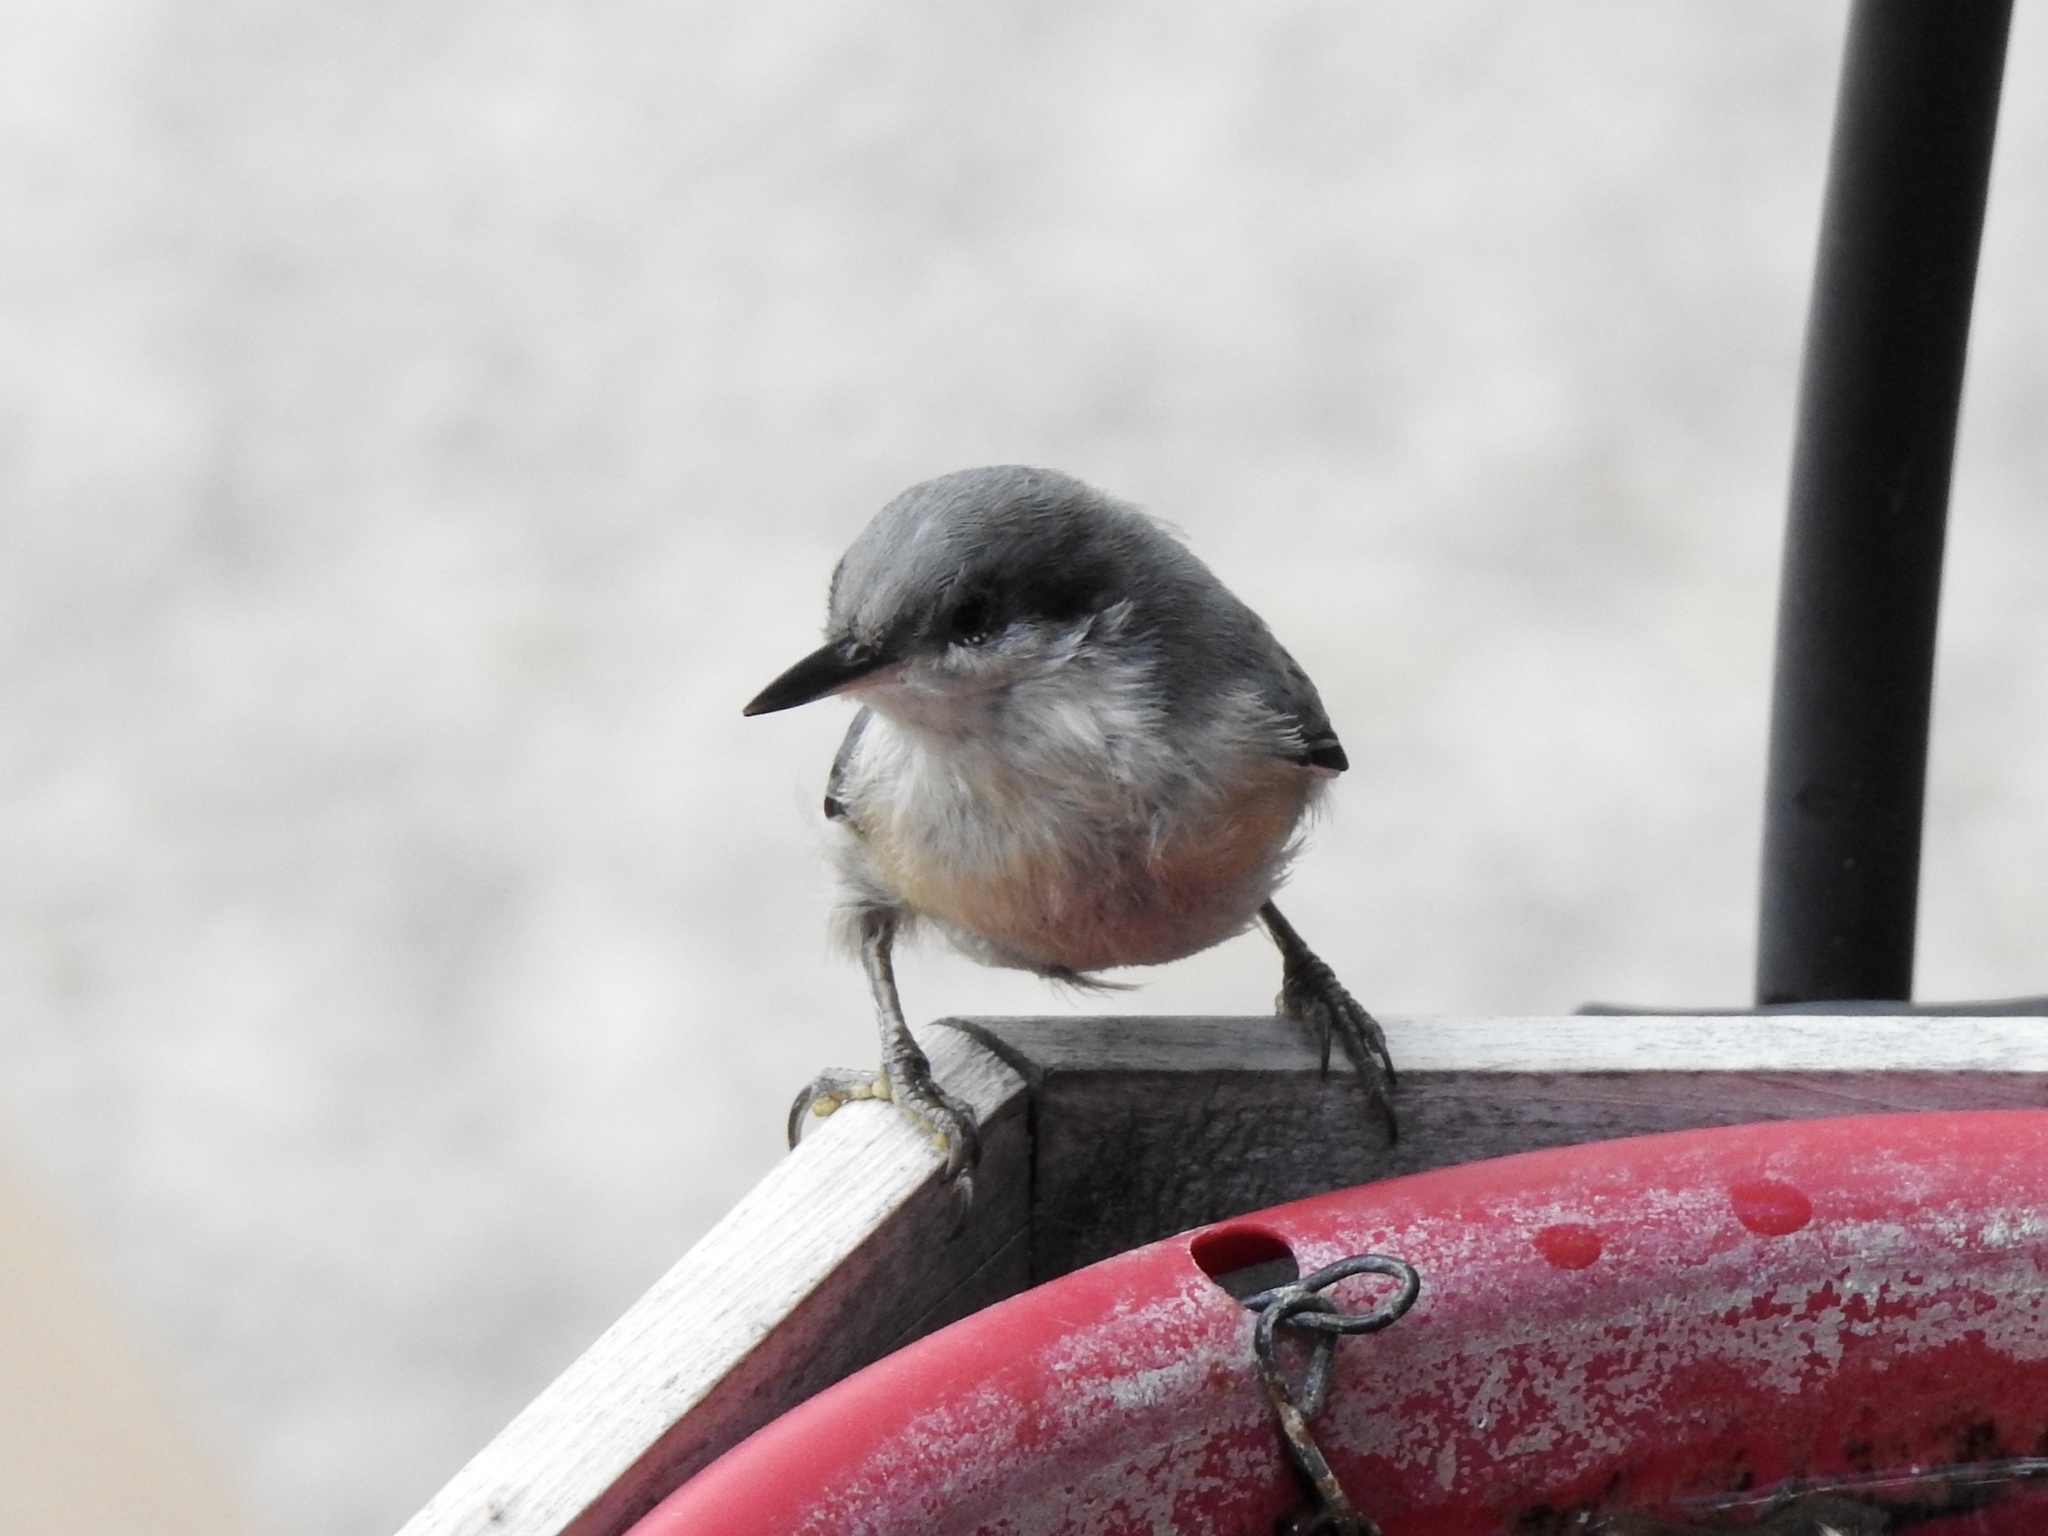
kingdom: Animalia
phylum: Chordata
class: Aves
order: Passeriformes
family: Sittidae
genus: Sitta
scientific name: Sitta pygmaea
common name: Pygmy nuthatch
